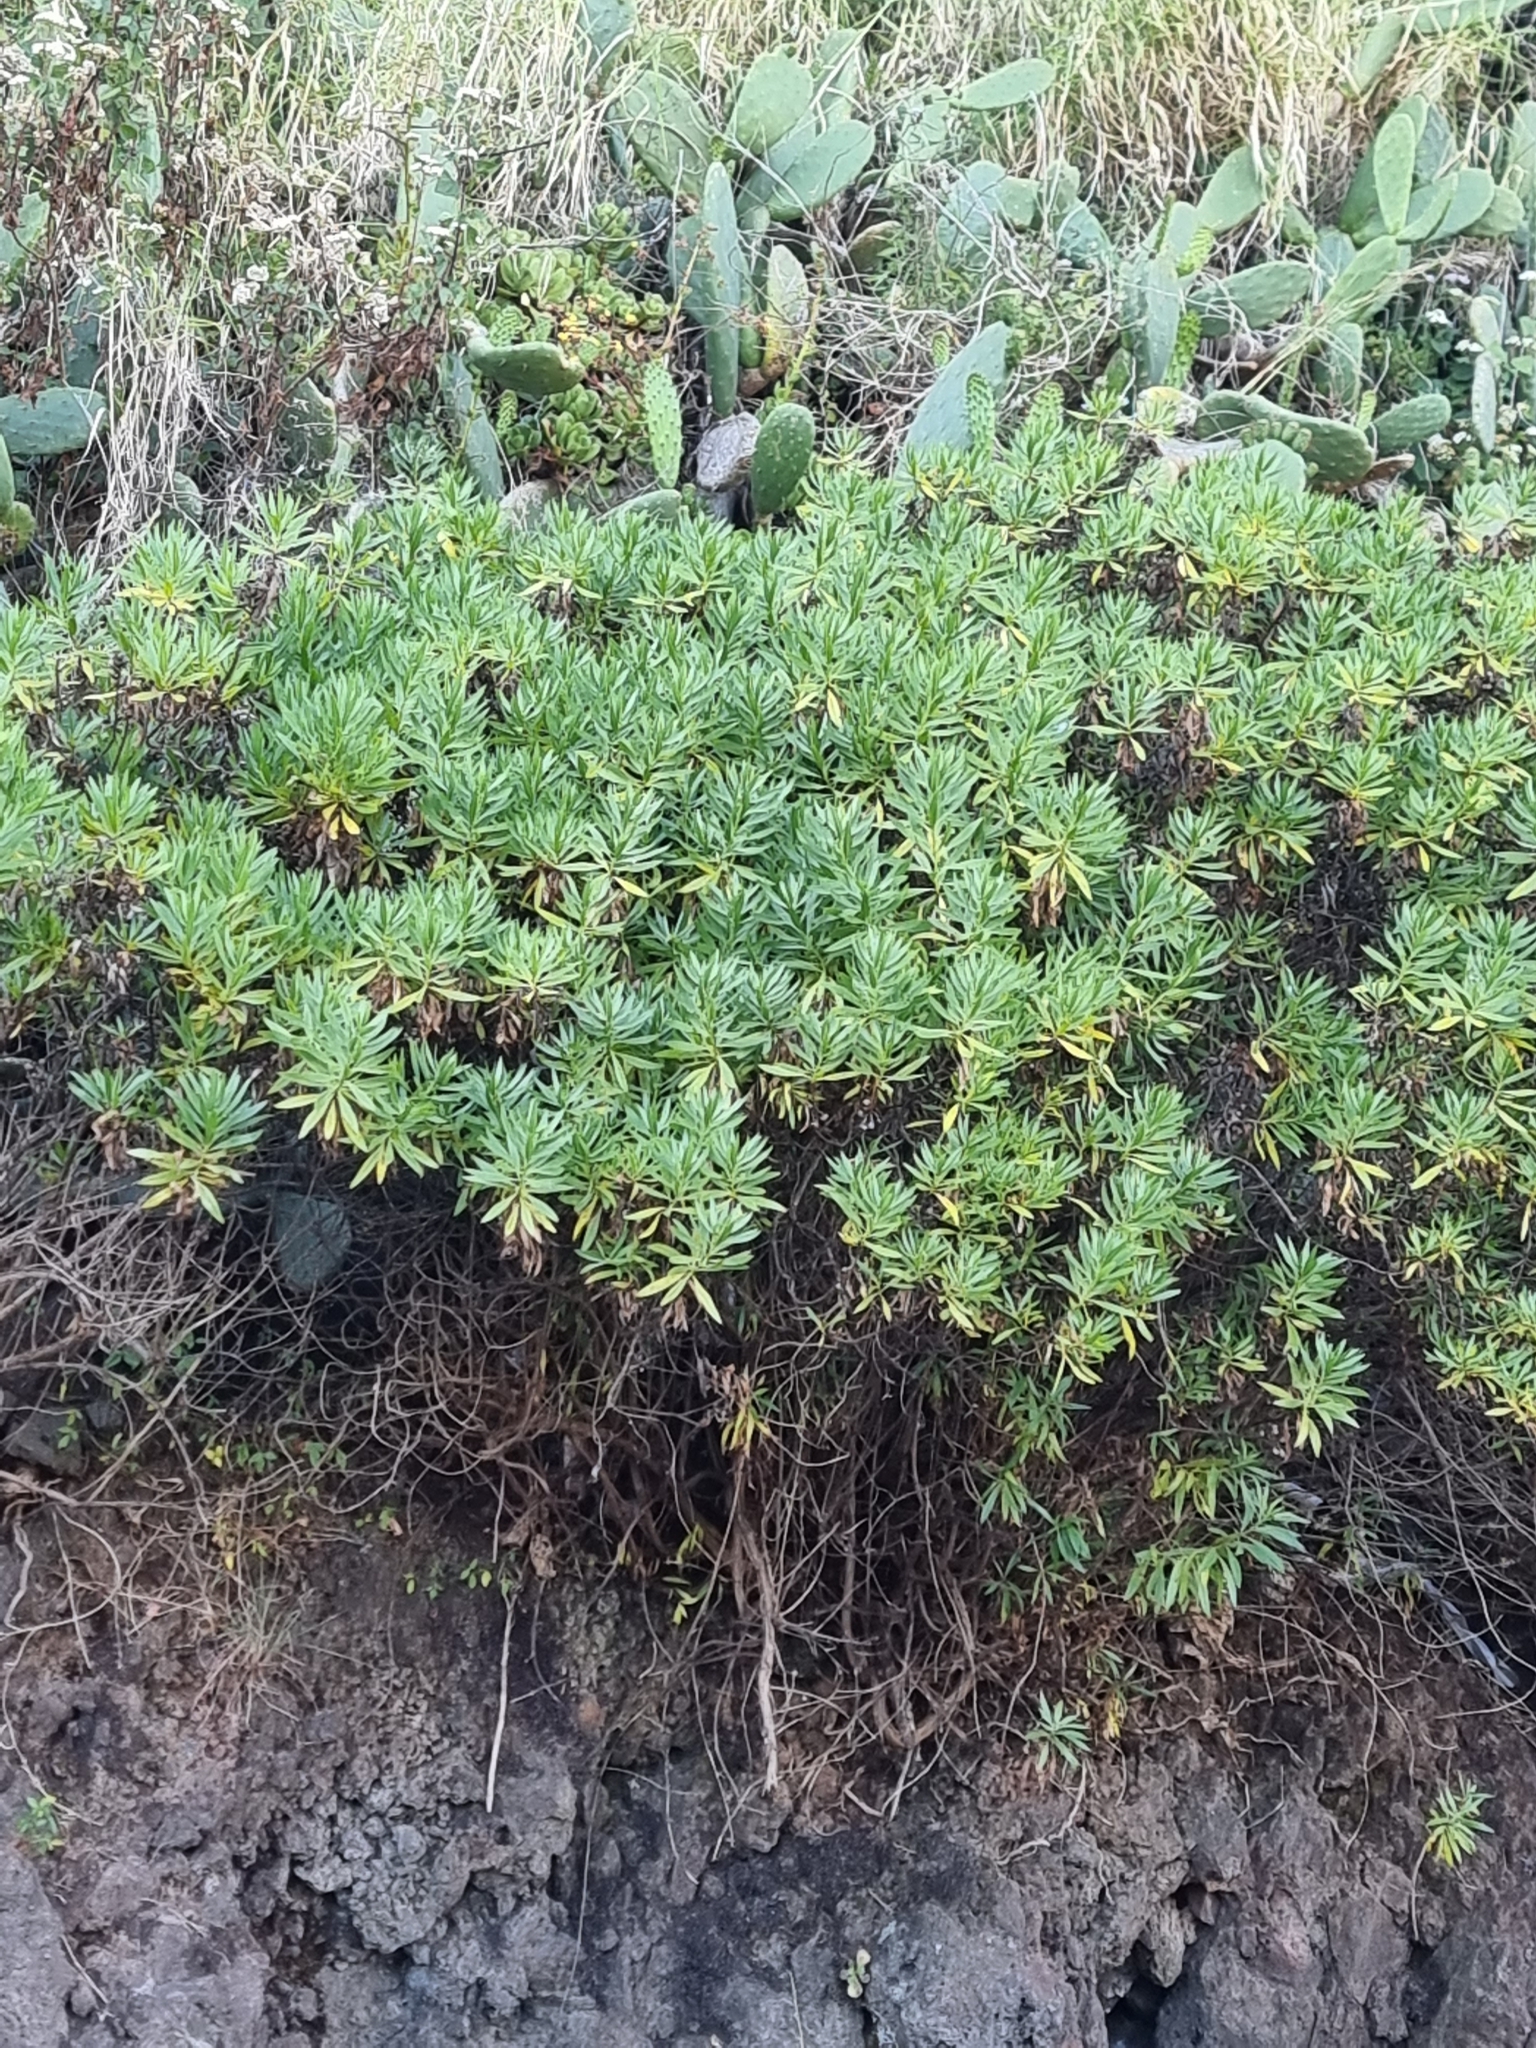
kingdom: Plantae
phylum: Tracheophyta
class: Magnoliopsida
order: Lamiales
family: Plantaginaceae
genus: Globularia
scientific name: Globularia salicina
